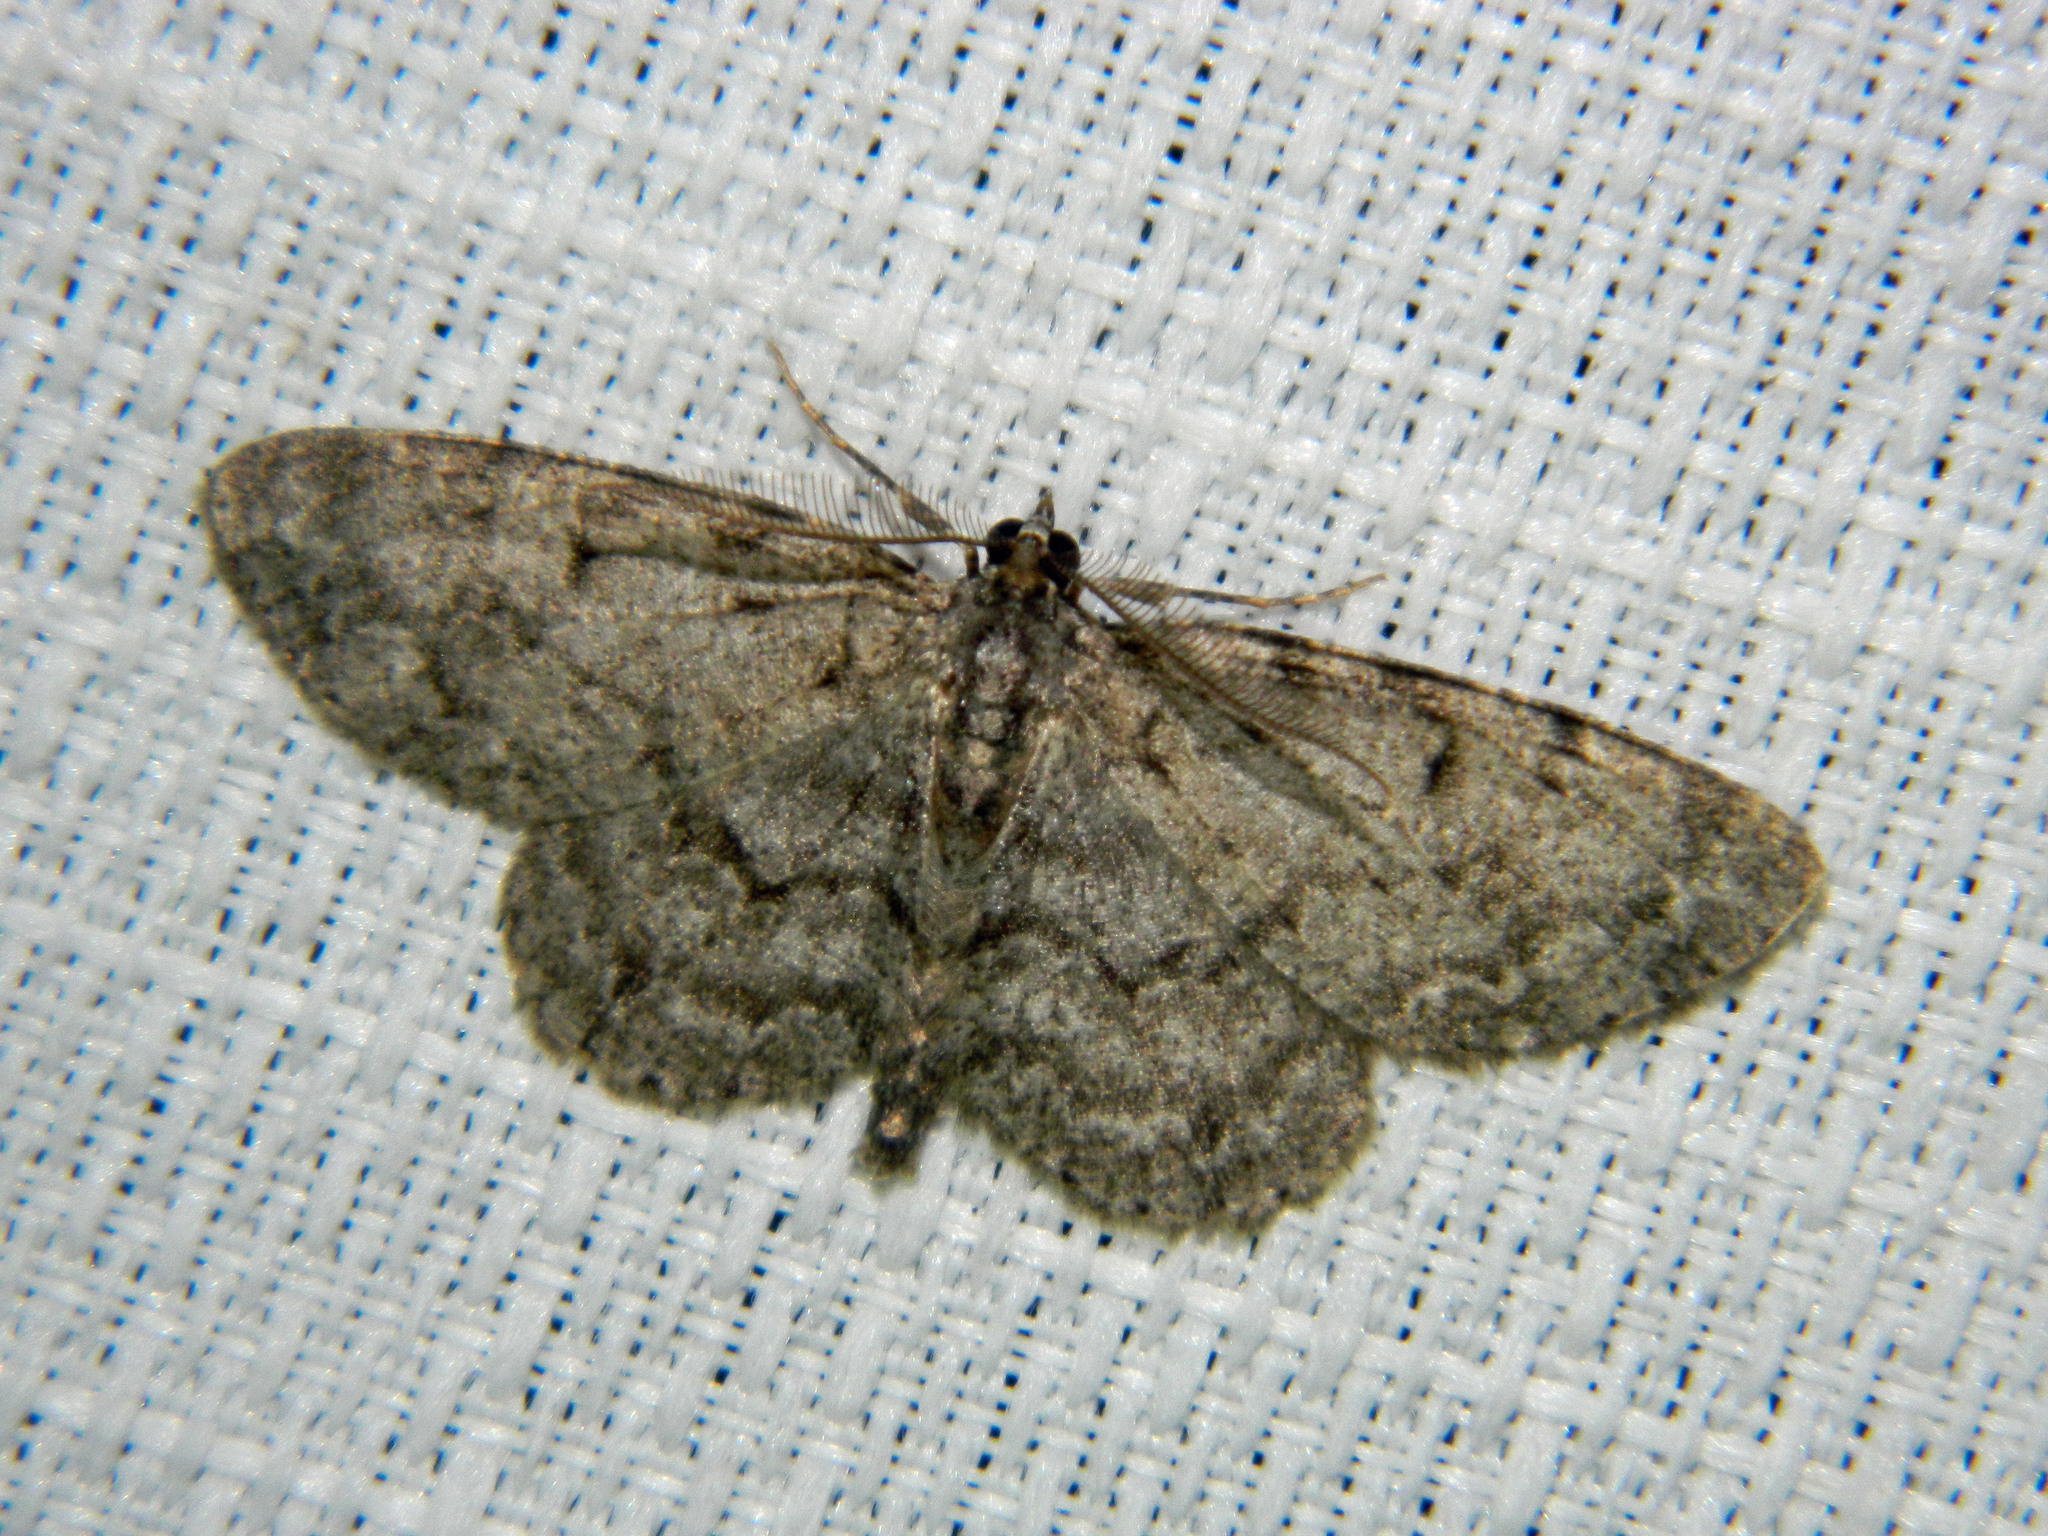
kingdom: Animalia
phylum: Arthropoda
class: Insecta
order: Lepidoptera
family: Geometridae
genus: Protoboarmia
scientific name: Protoboarmia porcelaria
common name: Porcelain gray
